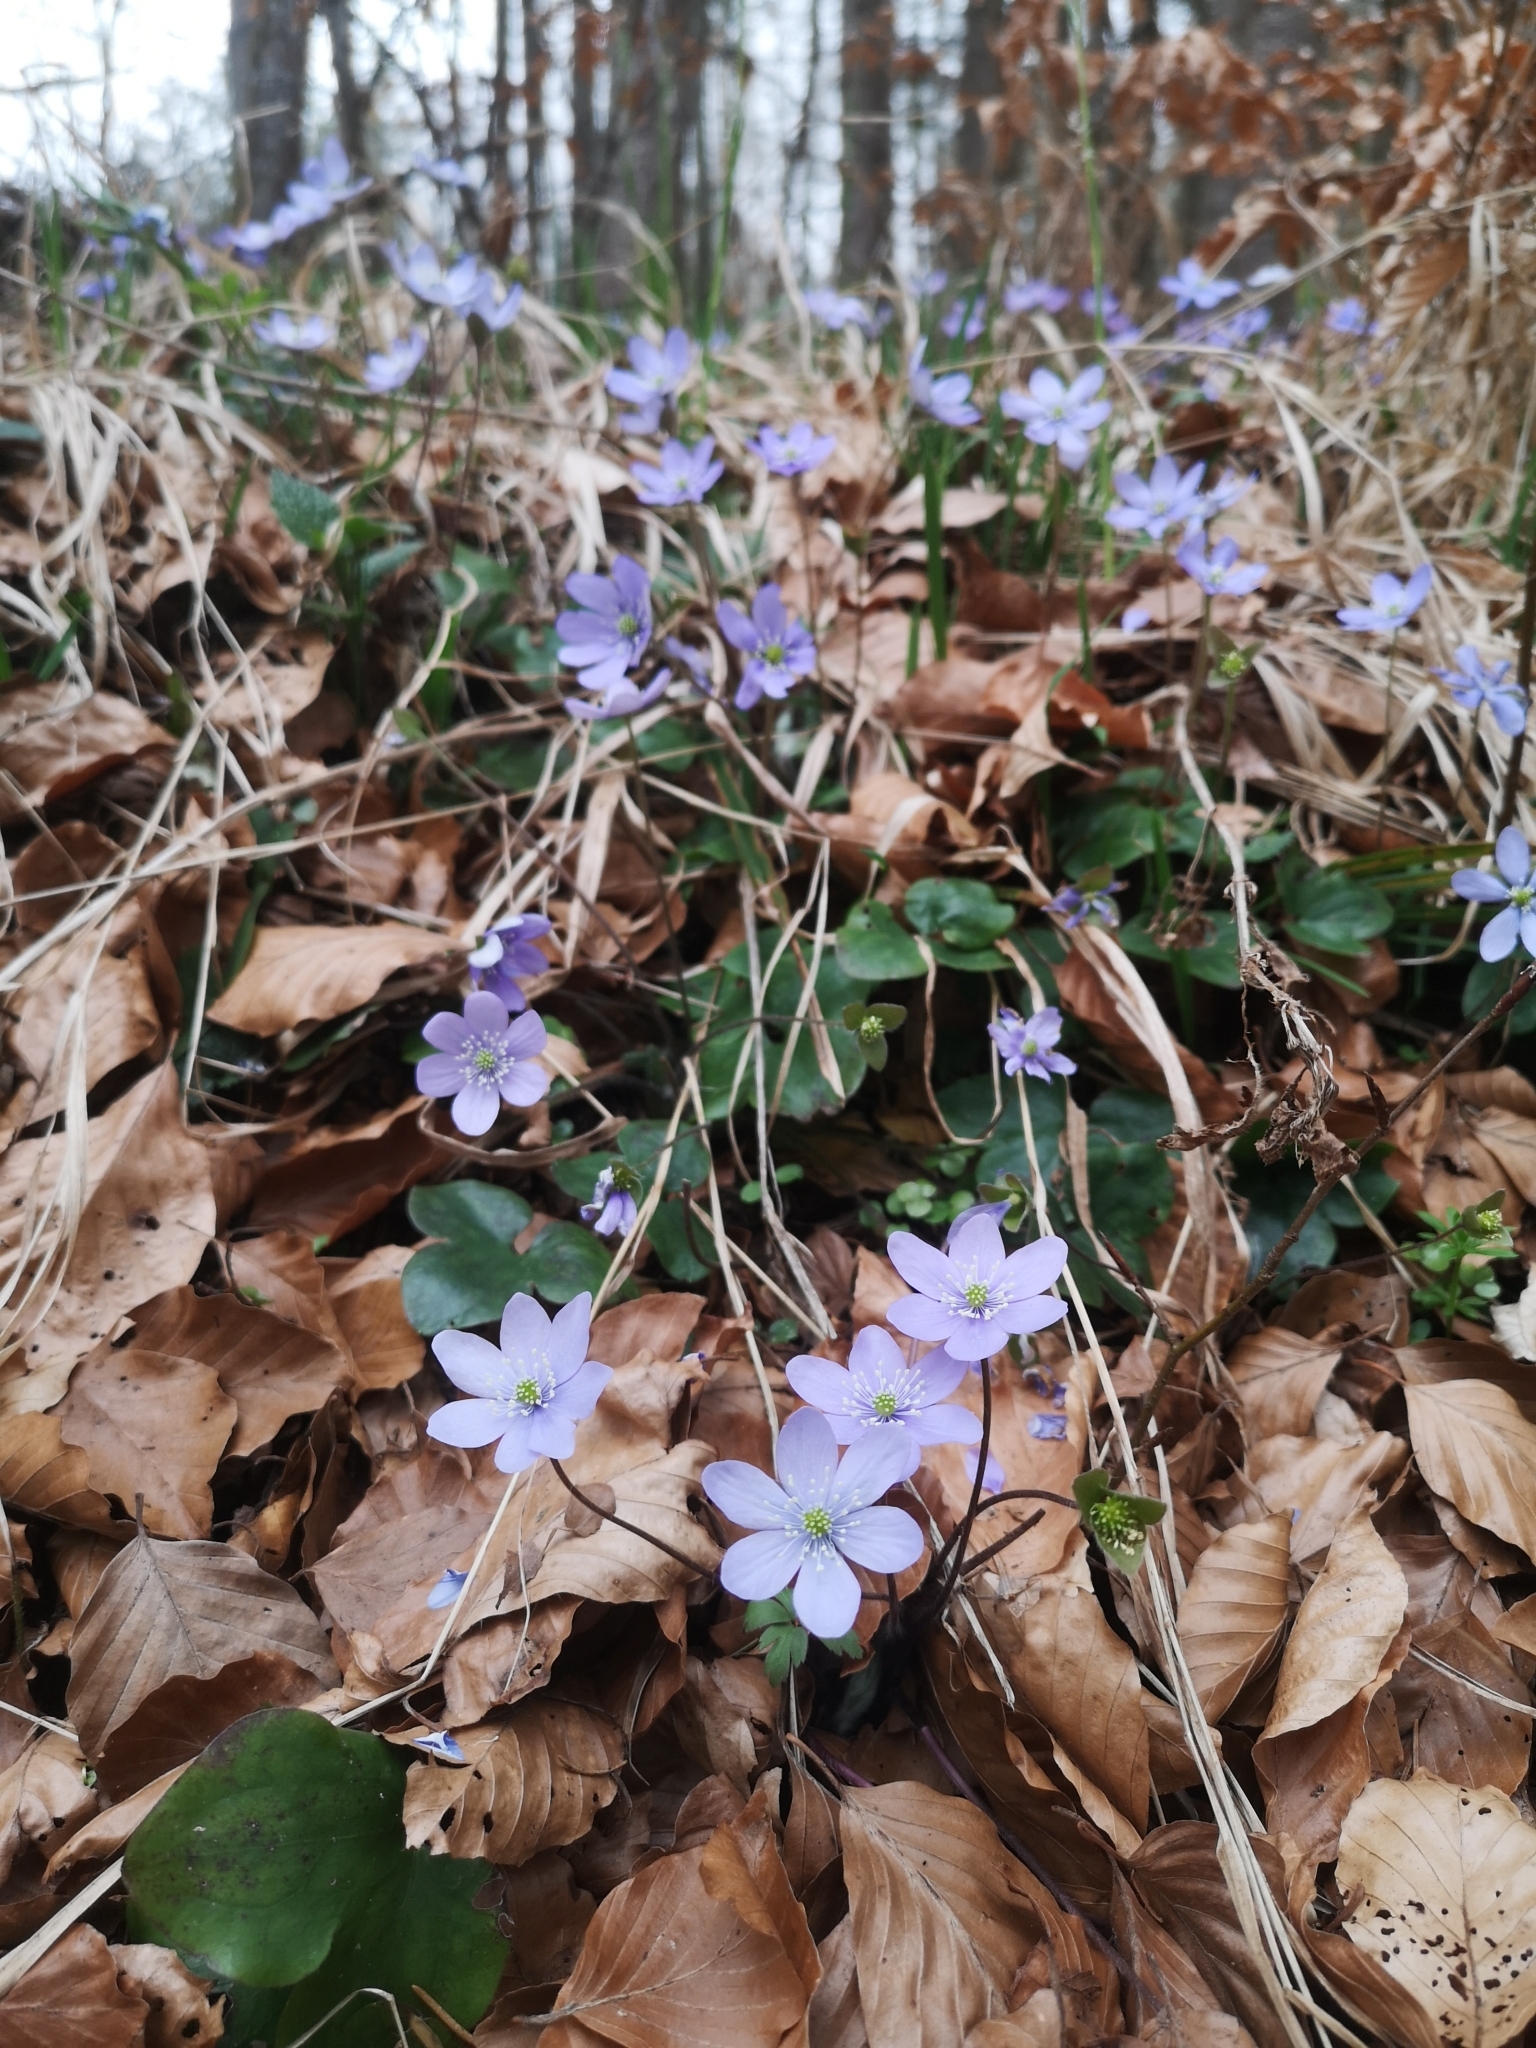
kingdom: Plantae
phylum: Tracheophyta
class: Magnoliopsida
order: Ranunculales
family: Ranunculaceae
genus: Hepatica
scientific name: Hepatica nobilis
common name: Liverleaf
